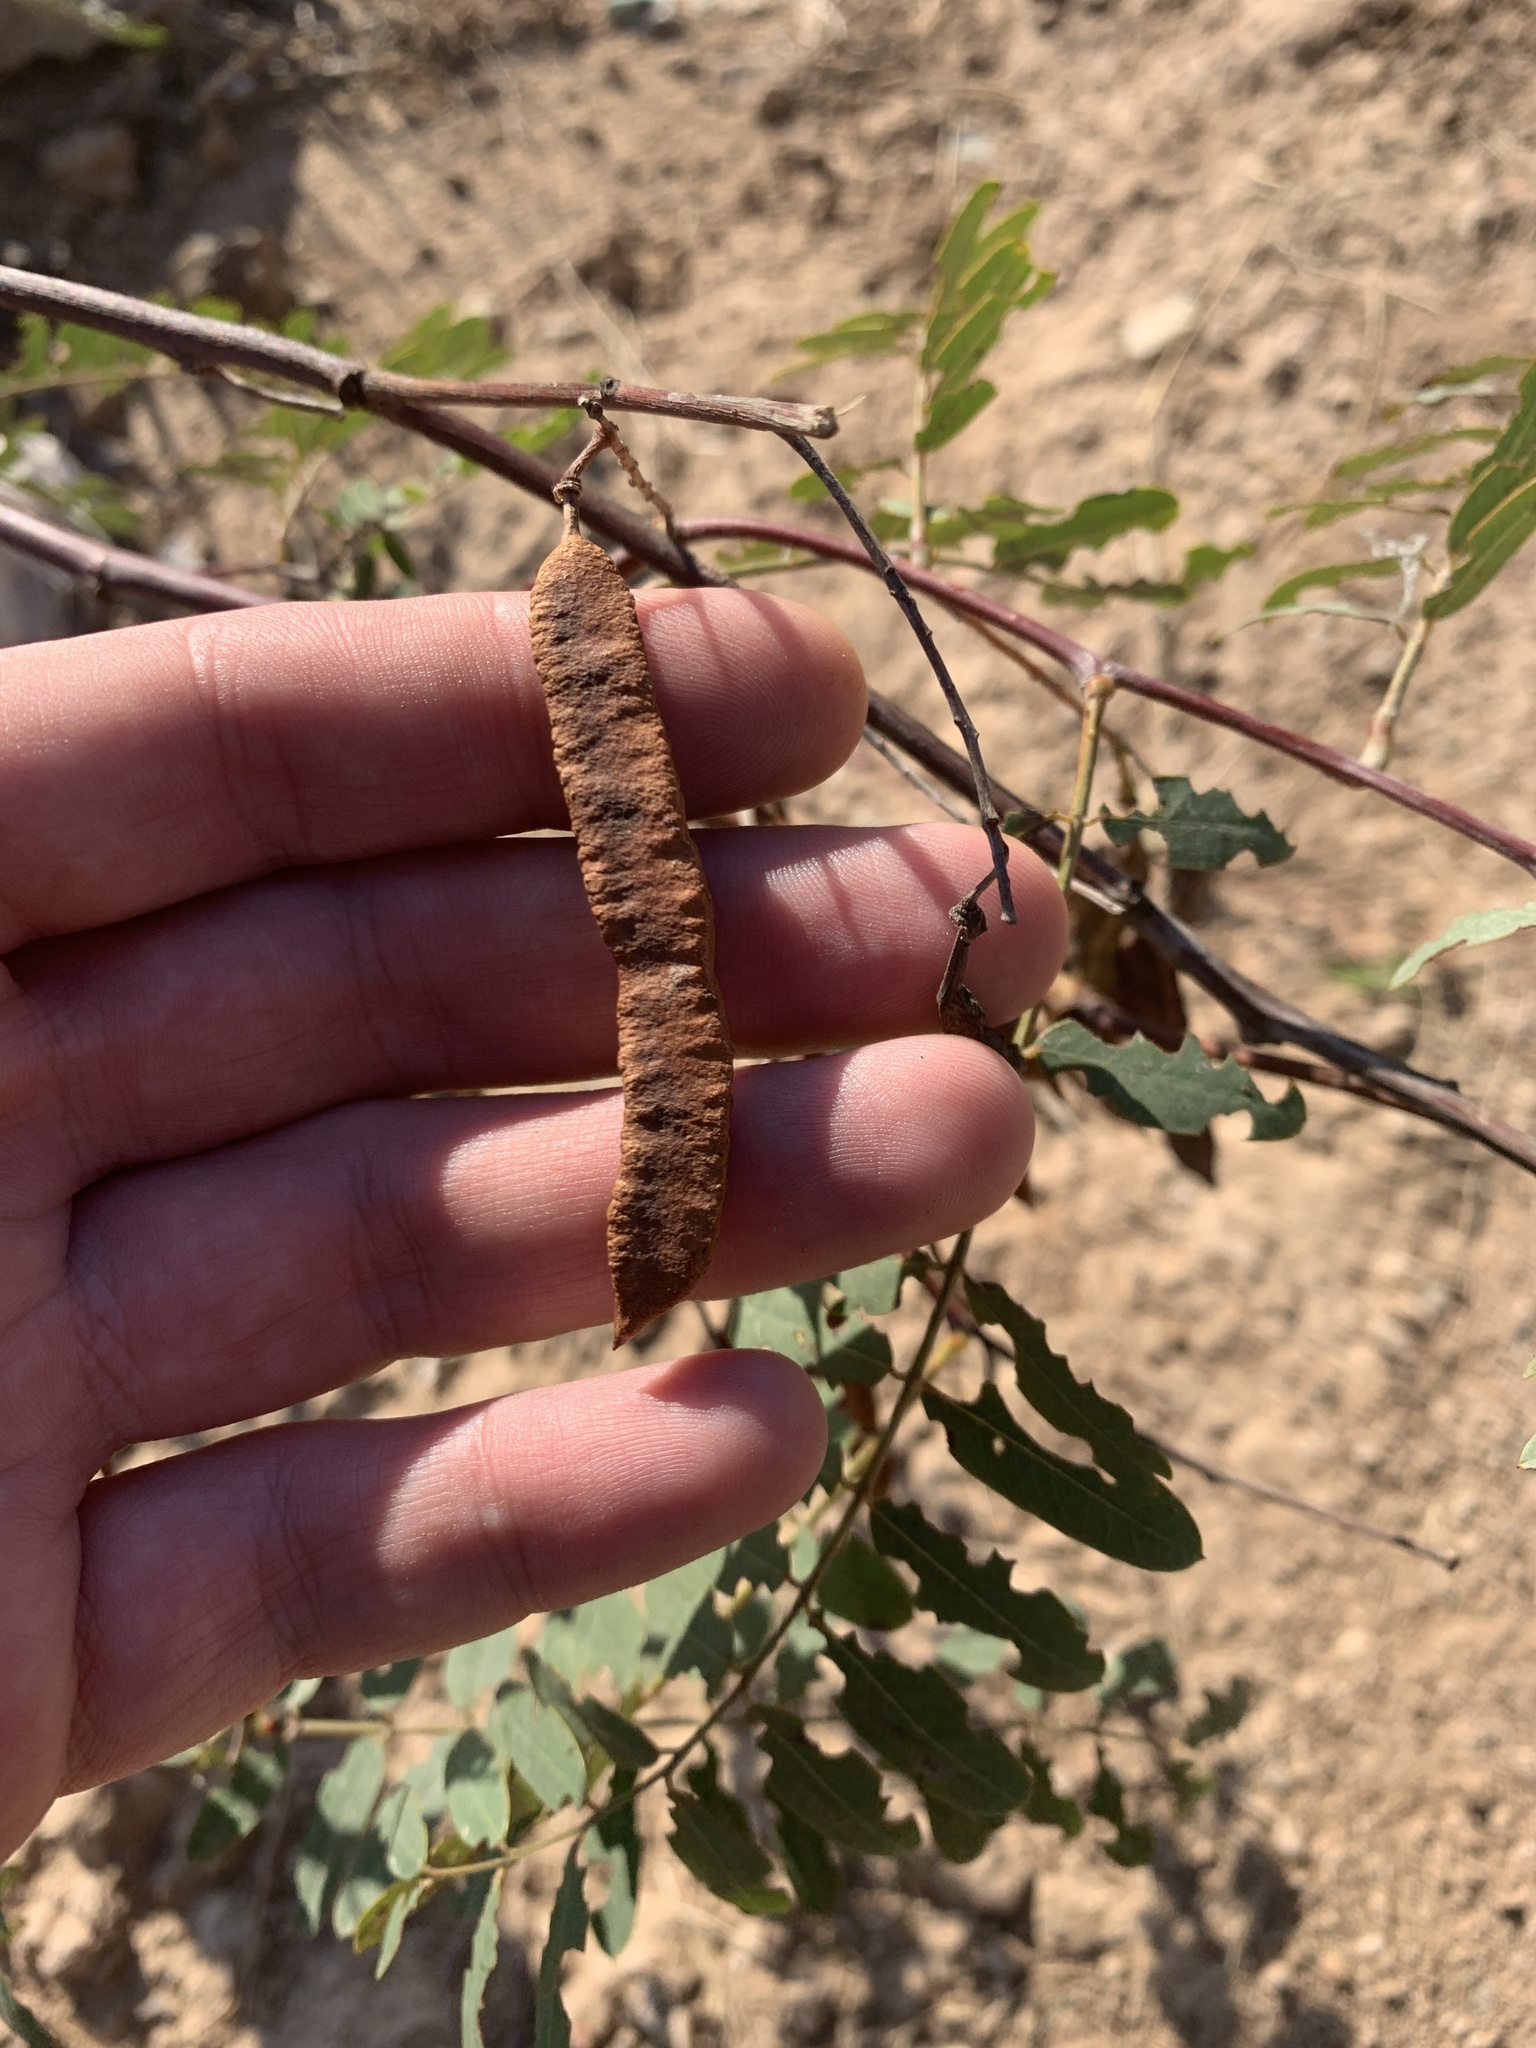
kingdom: Plantae
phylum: Tracheophyta
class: Magnoliopsida
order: Fabales
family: Fabaceae
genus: Sesbania
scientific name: Sesbania virgata
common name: Wand riverhemp
